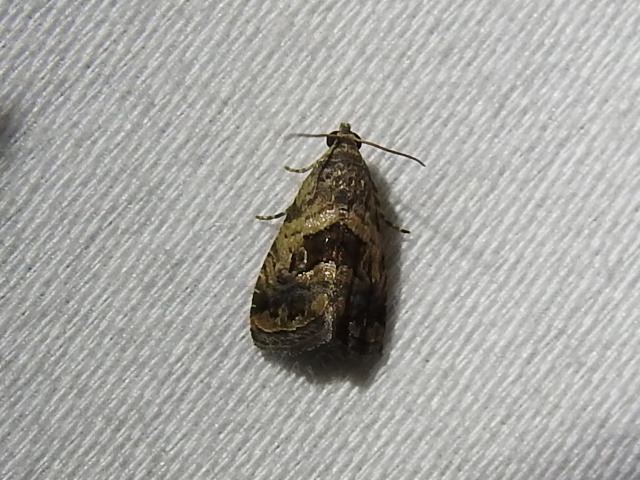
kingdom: Animalia
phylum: Arthropoda
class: Insecta
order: Lepidoptera
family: Noctuidae
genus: Tripudia
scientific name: Tripudia quadrifera
